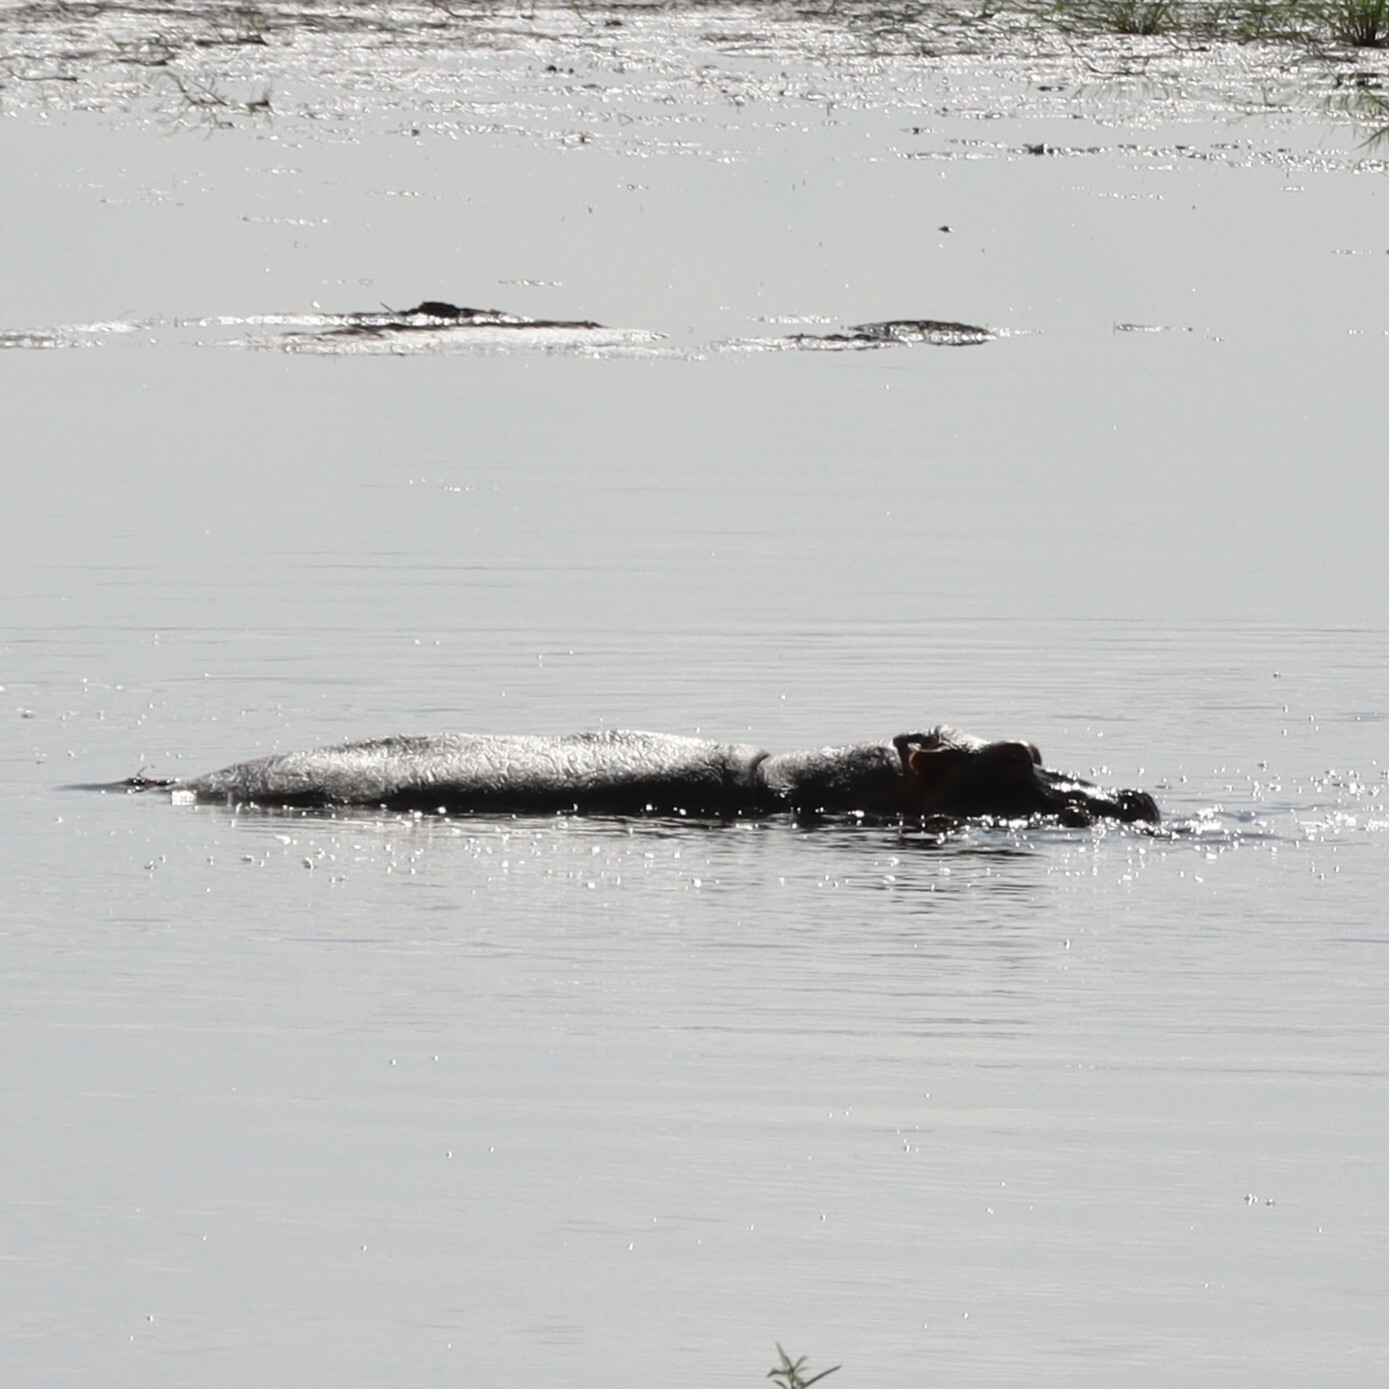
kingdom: Animalia
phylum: Chordata
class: Mammalia
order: Artiodactyla
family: Hippopotamidae
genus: Hippopotamus
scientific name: Hippopotamus amphibius
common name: Common hippopotamus
